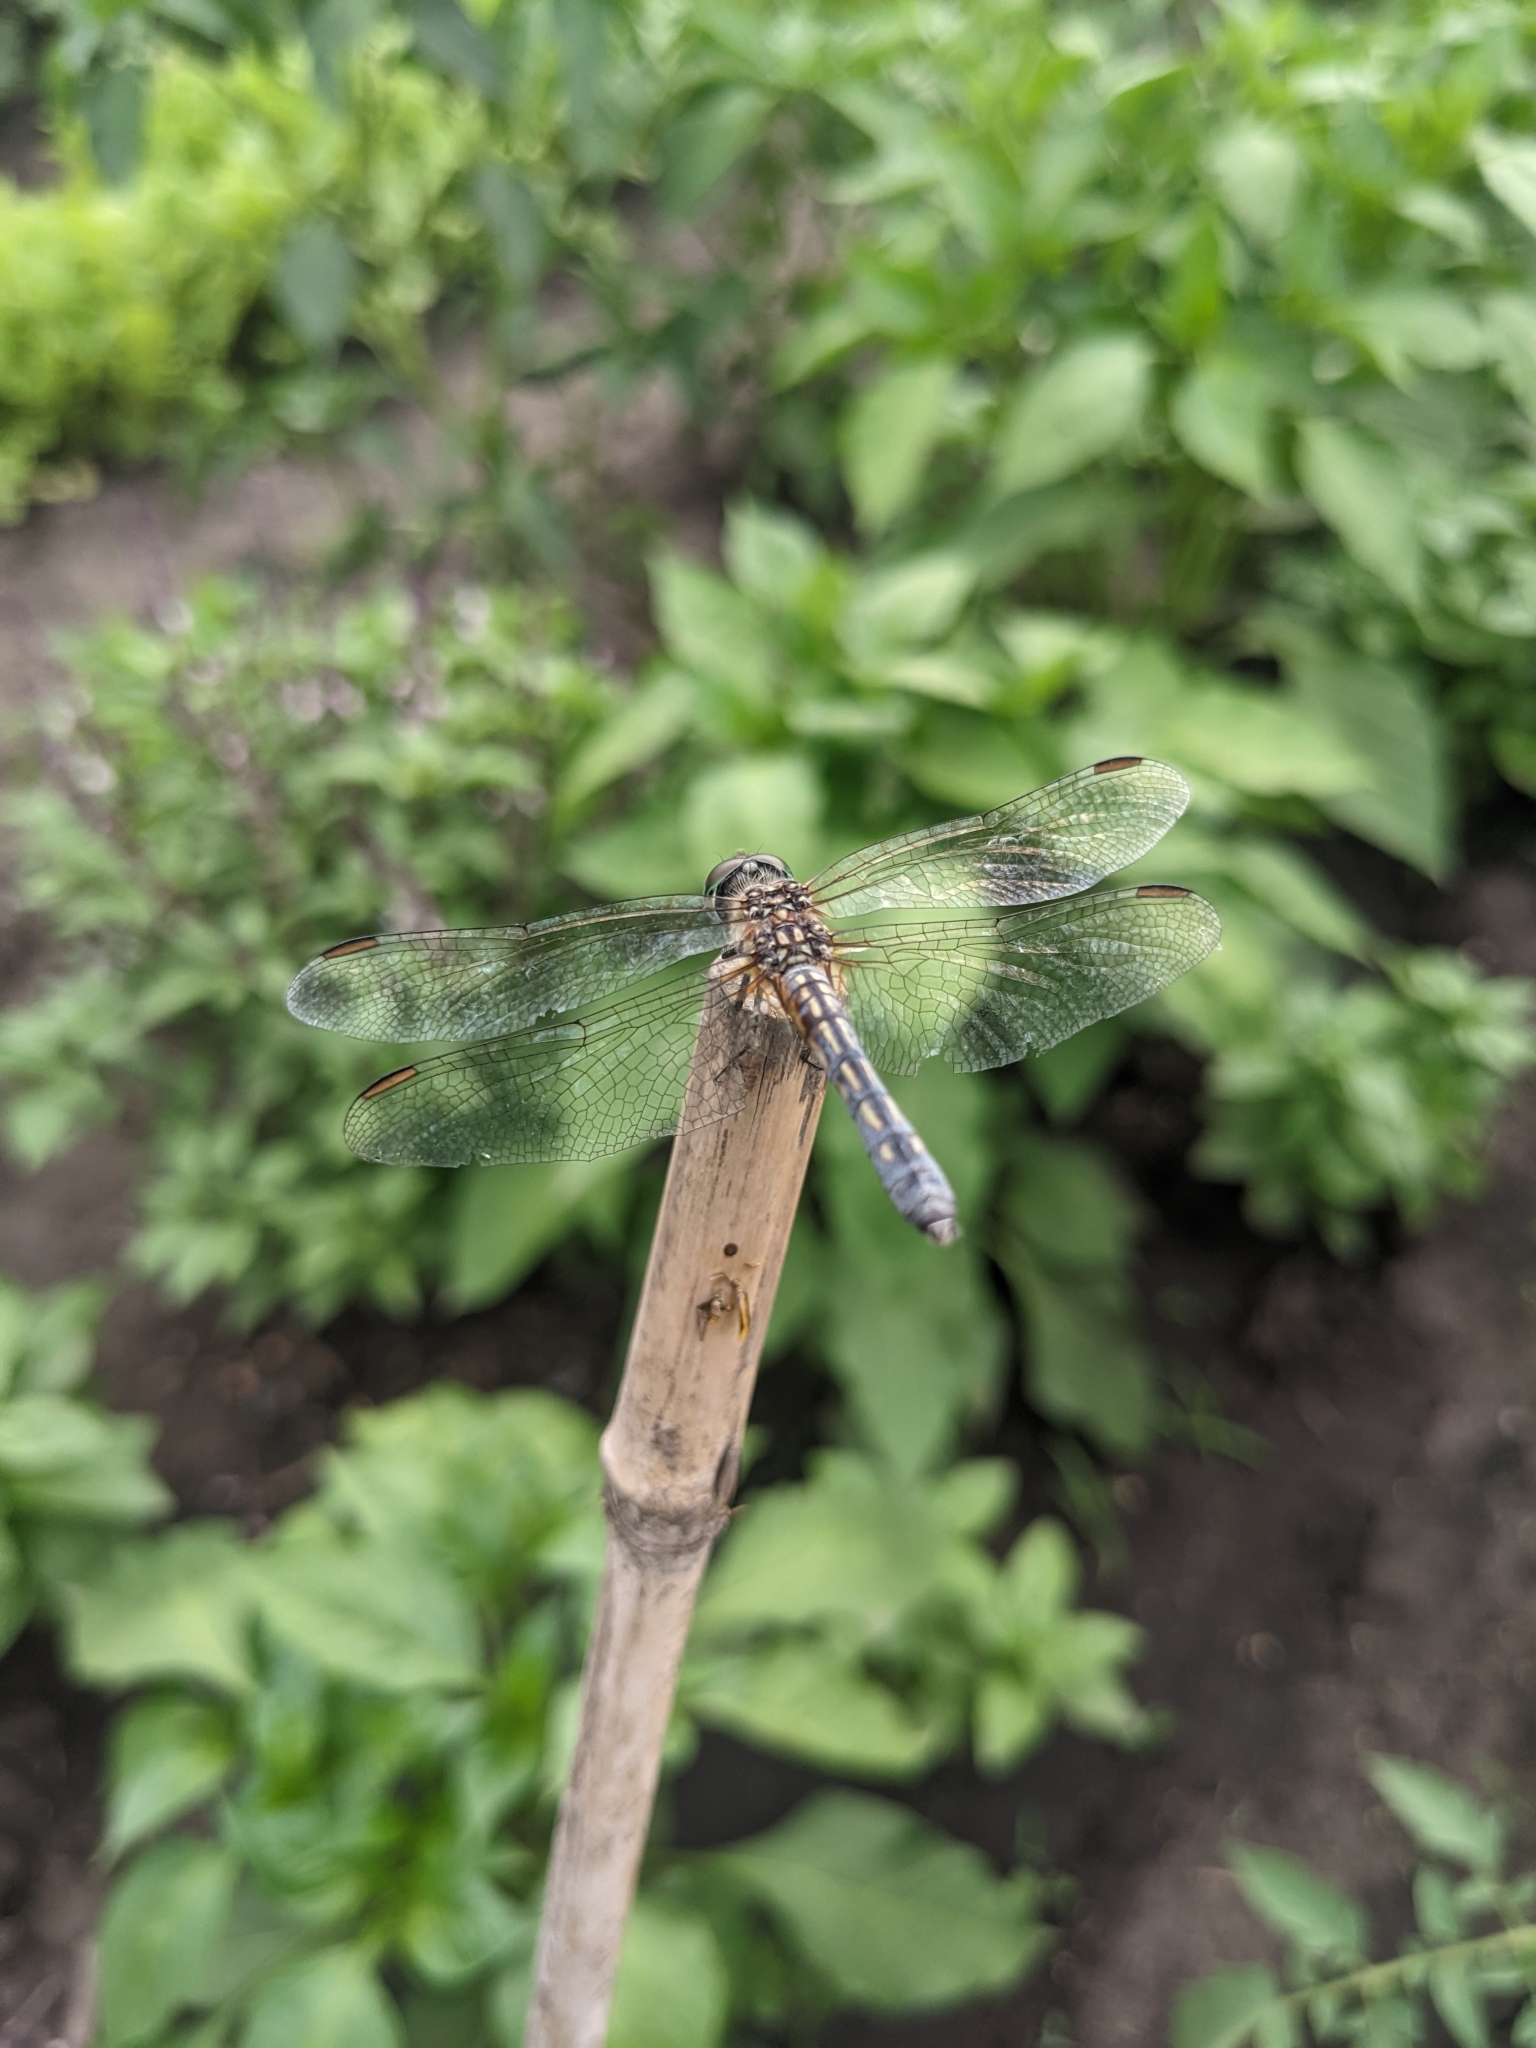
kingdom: Animalia
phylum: Arthropoda
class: Insecta
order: Odonata
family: Libellulidae
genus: Pachydiplax
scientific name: Pachydiplax longipennis
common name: Blue dasher
